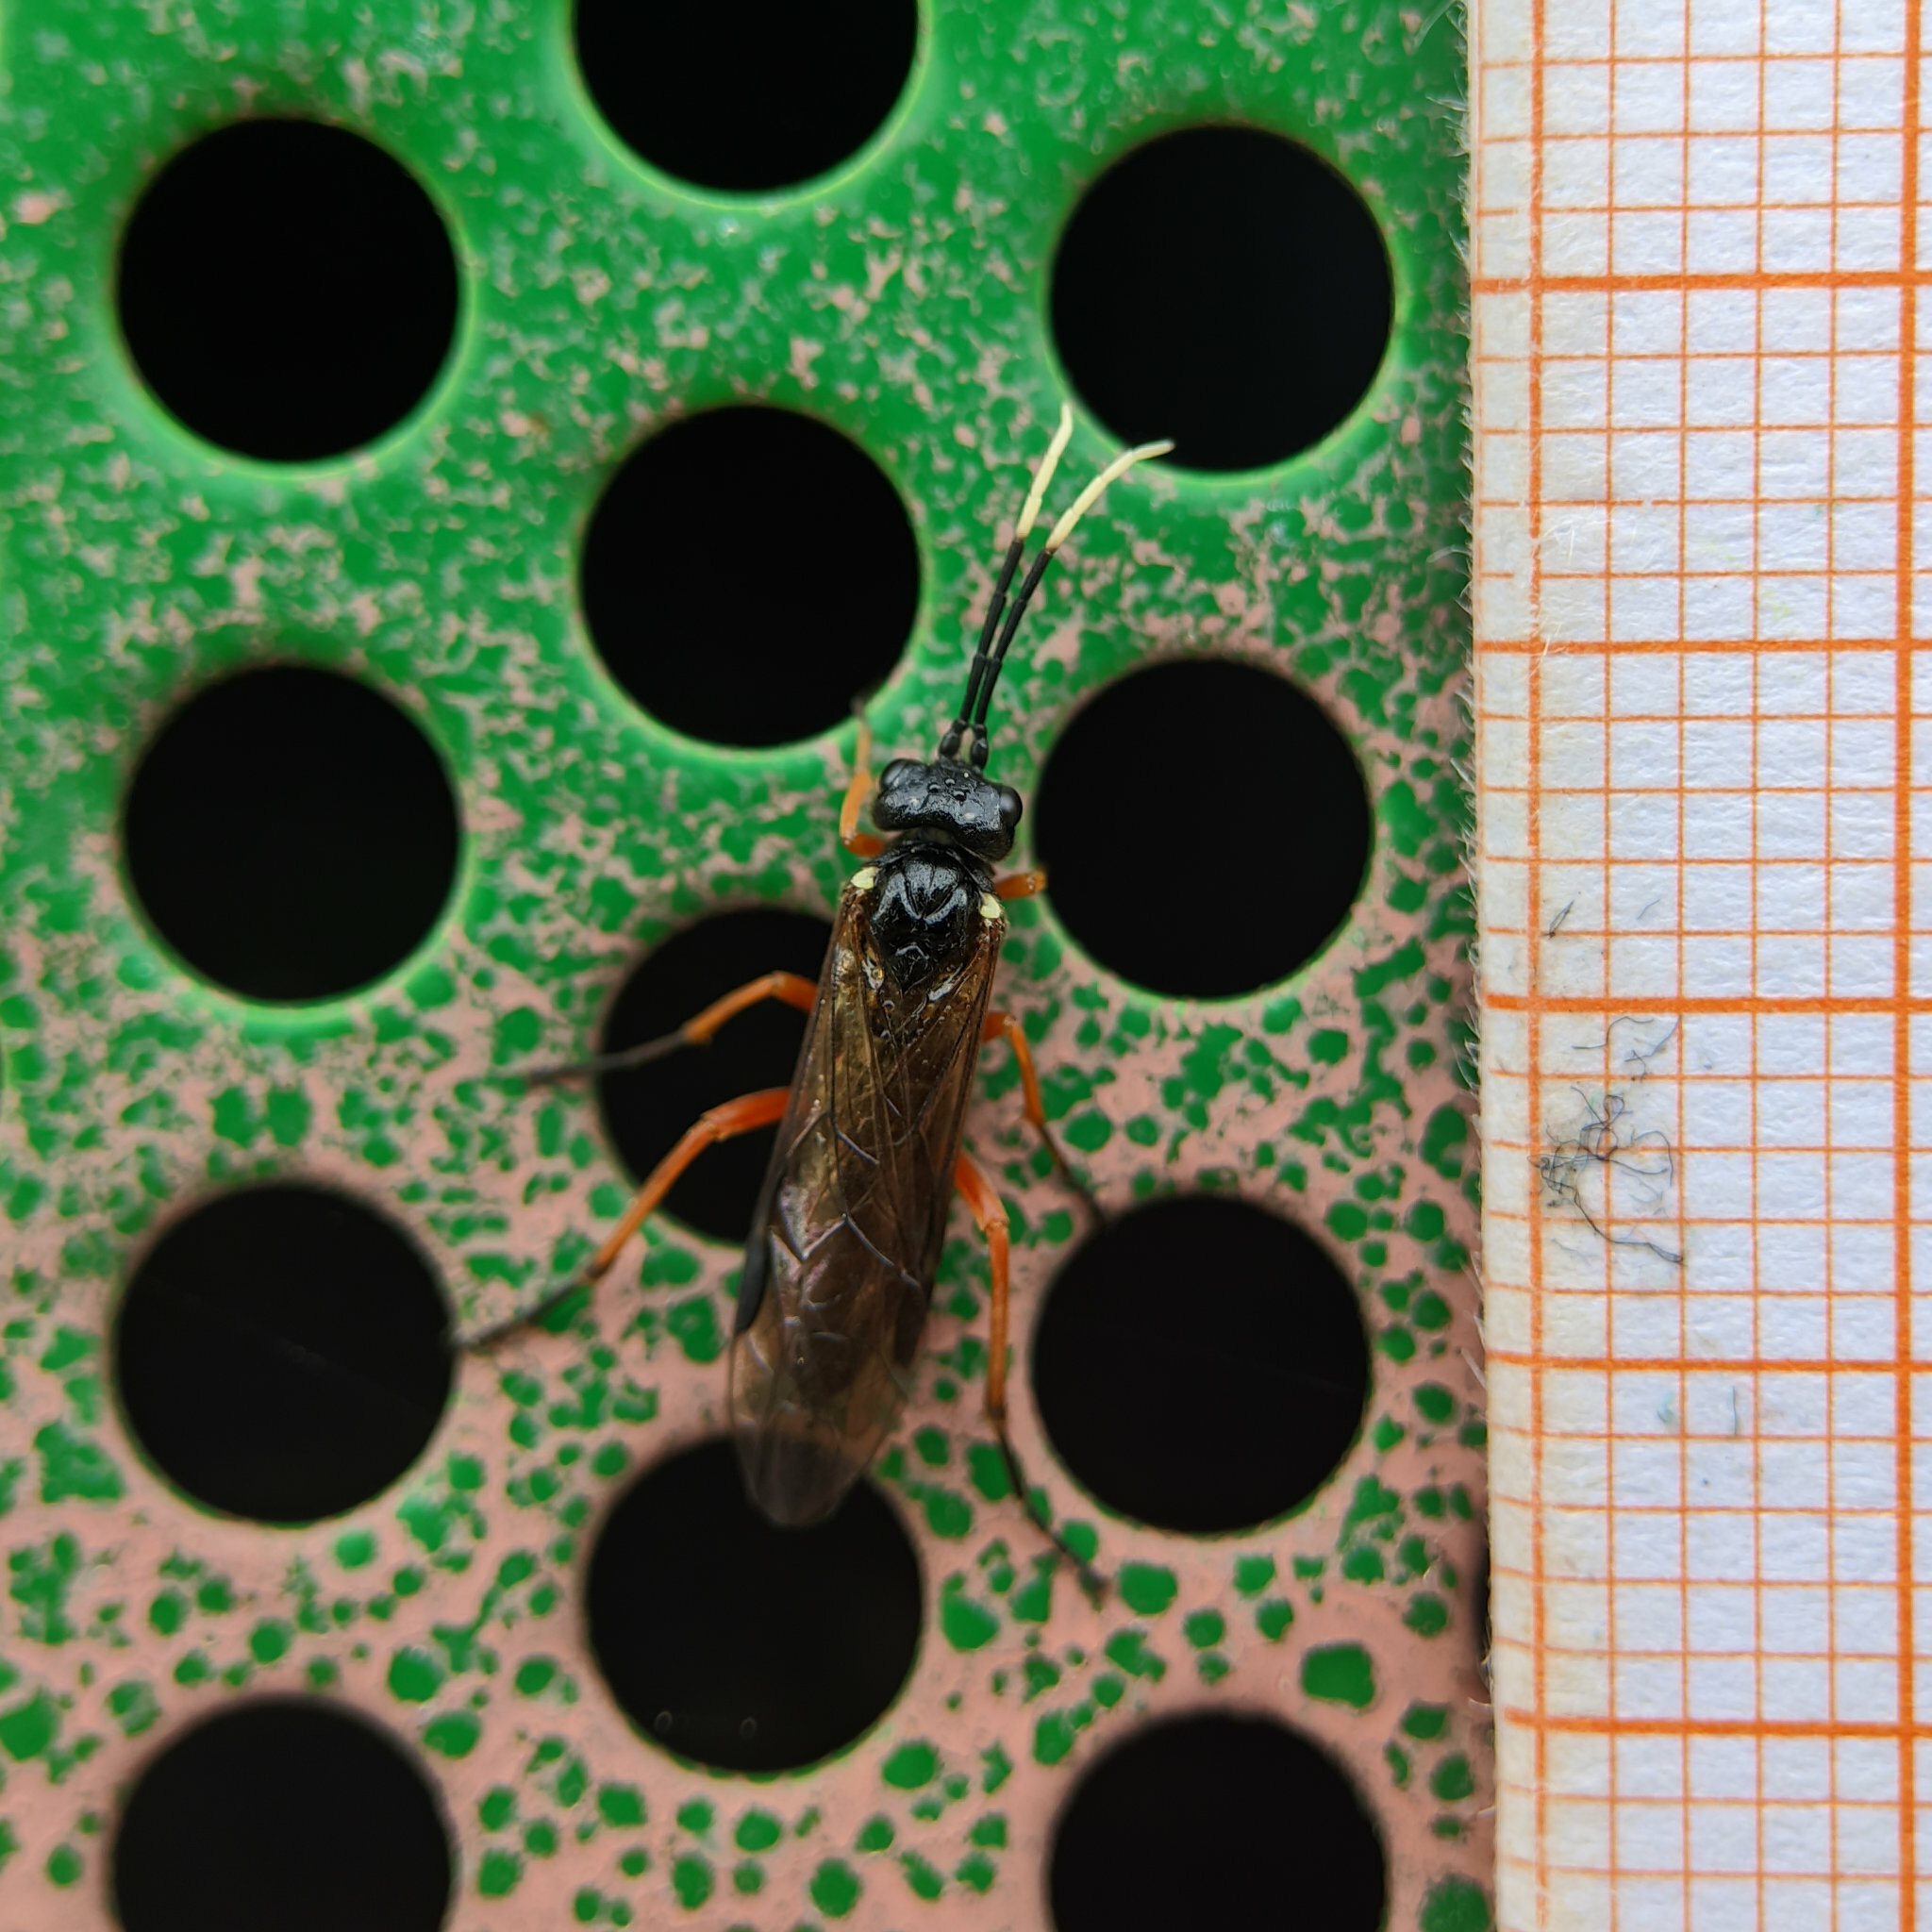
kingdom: Animalia
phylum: Arthropoda
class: Insecta
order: Hymenoptera
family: Tenthredinidae
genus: Apethymus
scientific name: Apethymus apicalis
